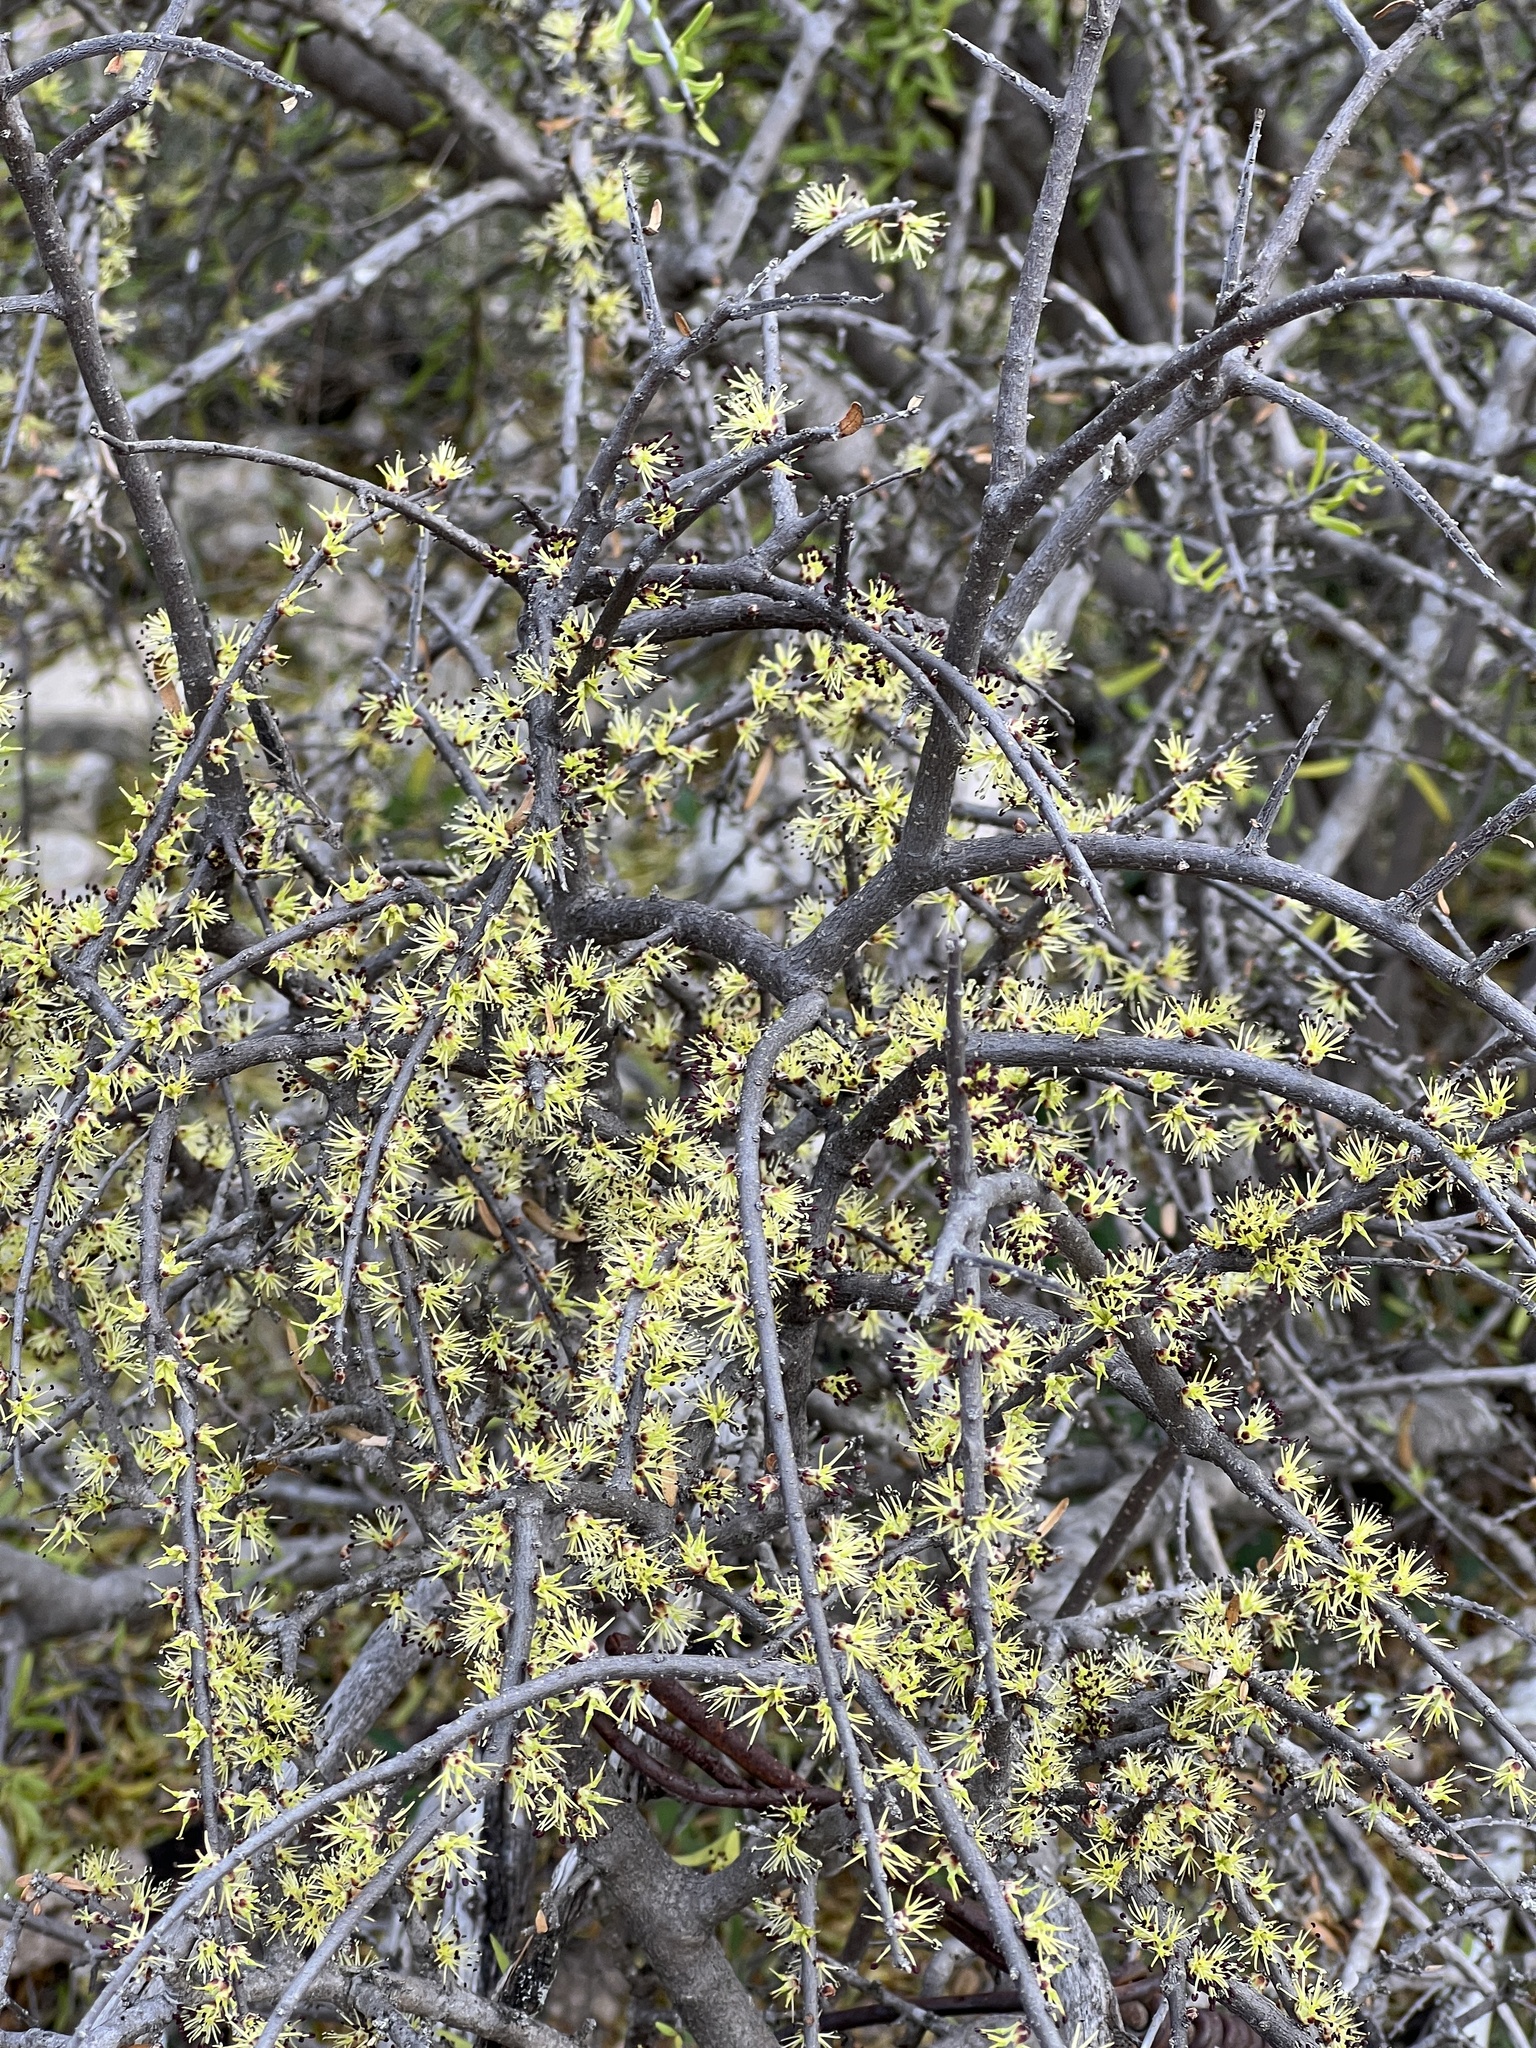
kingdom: Plantae
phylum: Tracheophyta
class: Magnoliopsida
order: Lamiales
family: Oleaceae
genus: Forestiera
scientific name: Forestiera angustifolia
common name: Elbowbush
